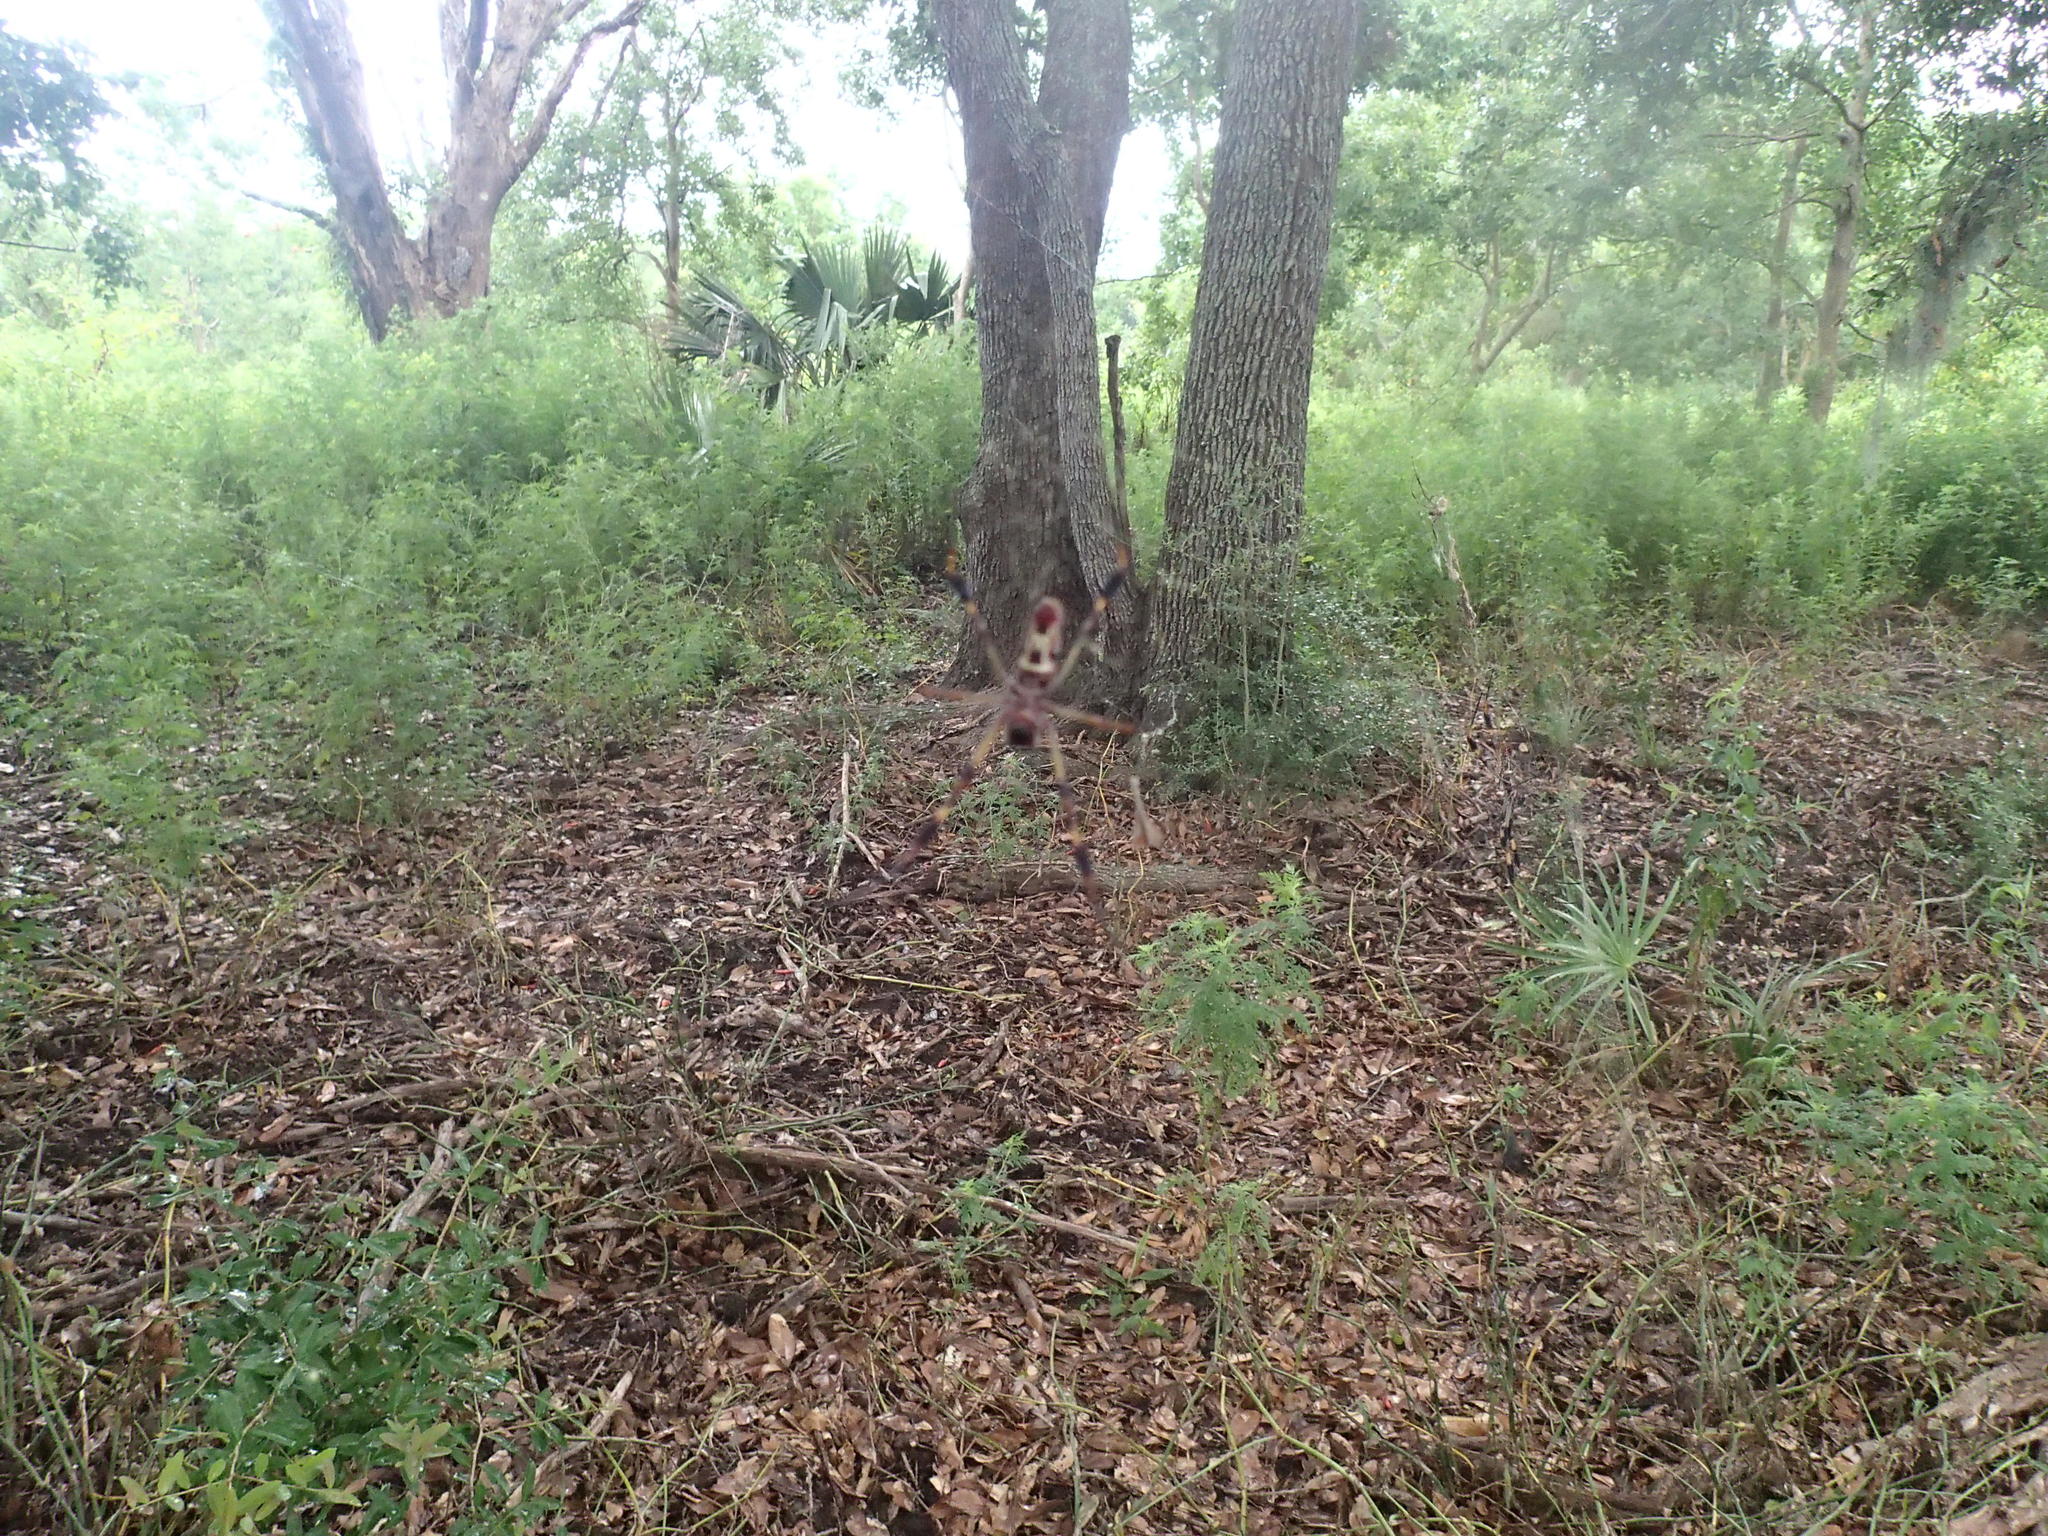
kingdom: Animalia
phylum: Arthropoda
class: Arachnida
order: Araneae
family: Araneidae
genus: Trichonephila
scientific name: Trichonephila clavipes
